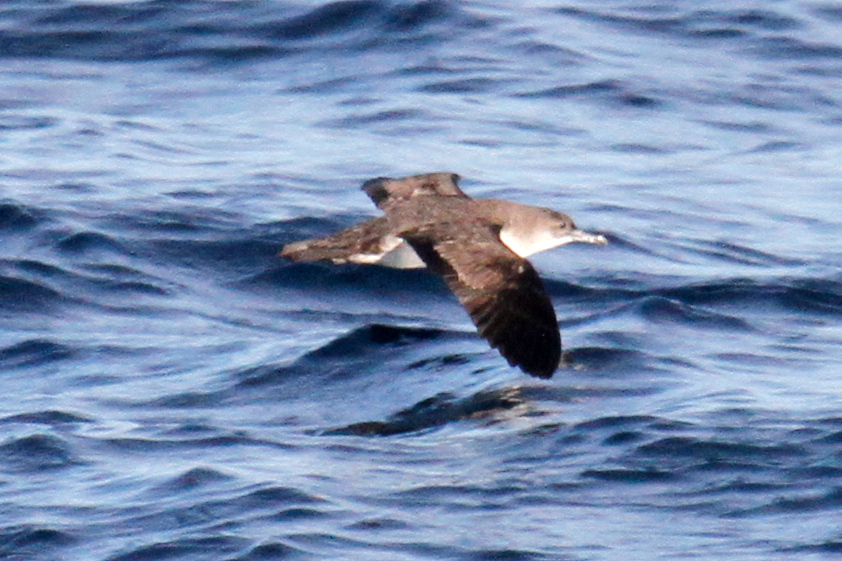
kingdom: Animalia
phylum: Chordata
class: Aves
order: Procellariiformes
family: Procellariidae
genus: Puffinus
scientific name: Puffinus opisthomelas
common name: Black-vented shearwater
